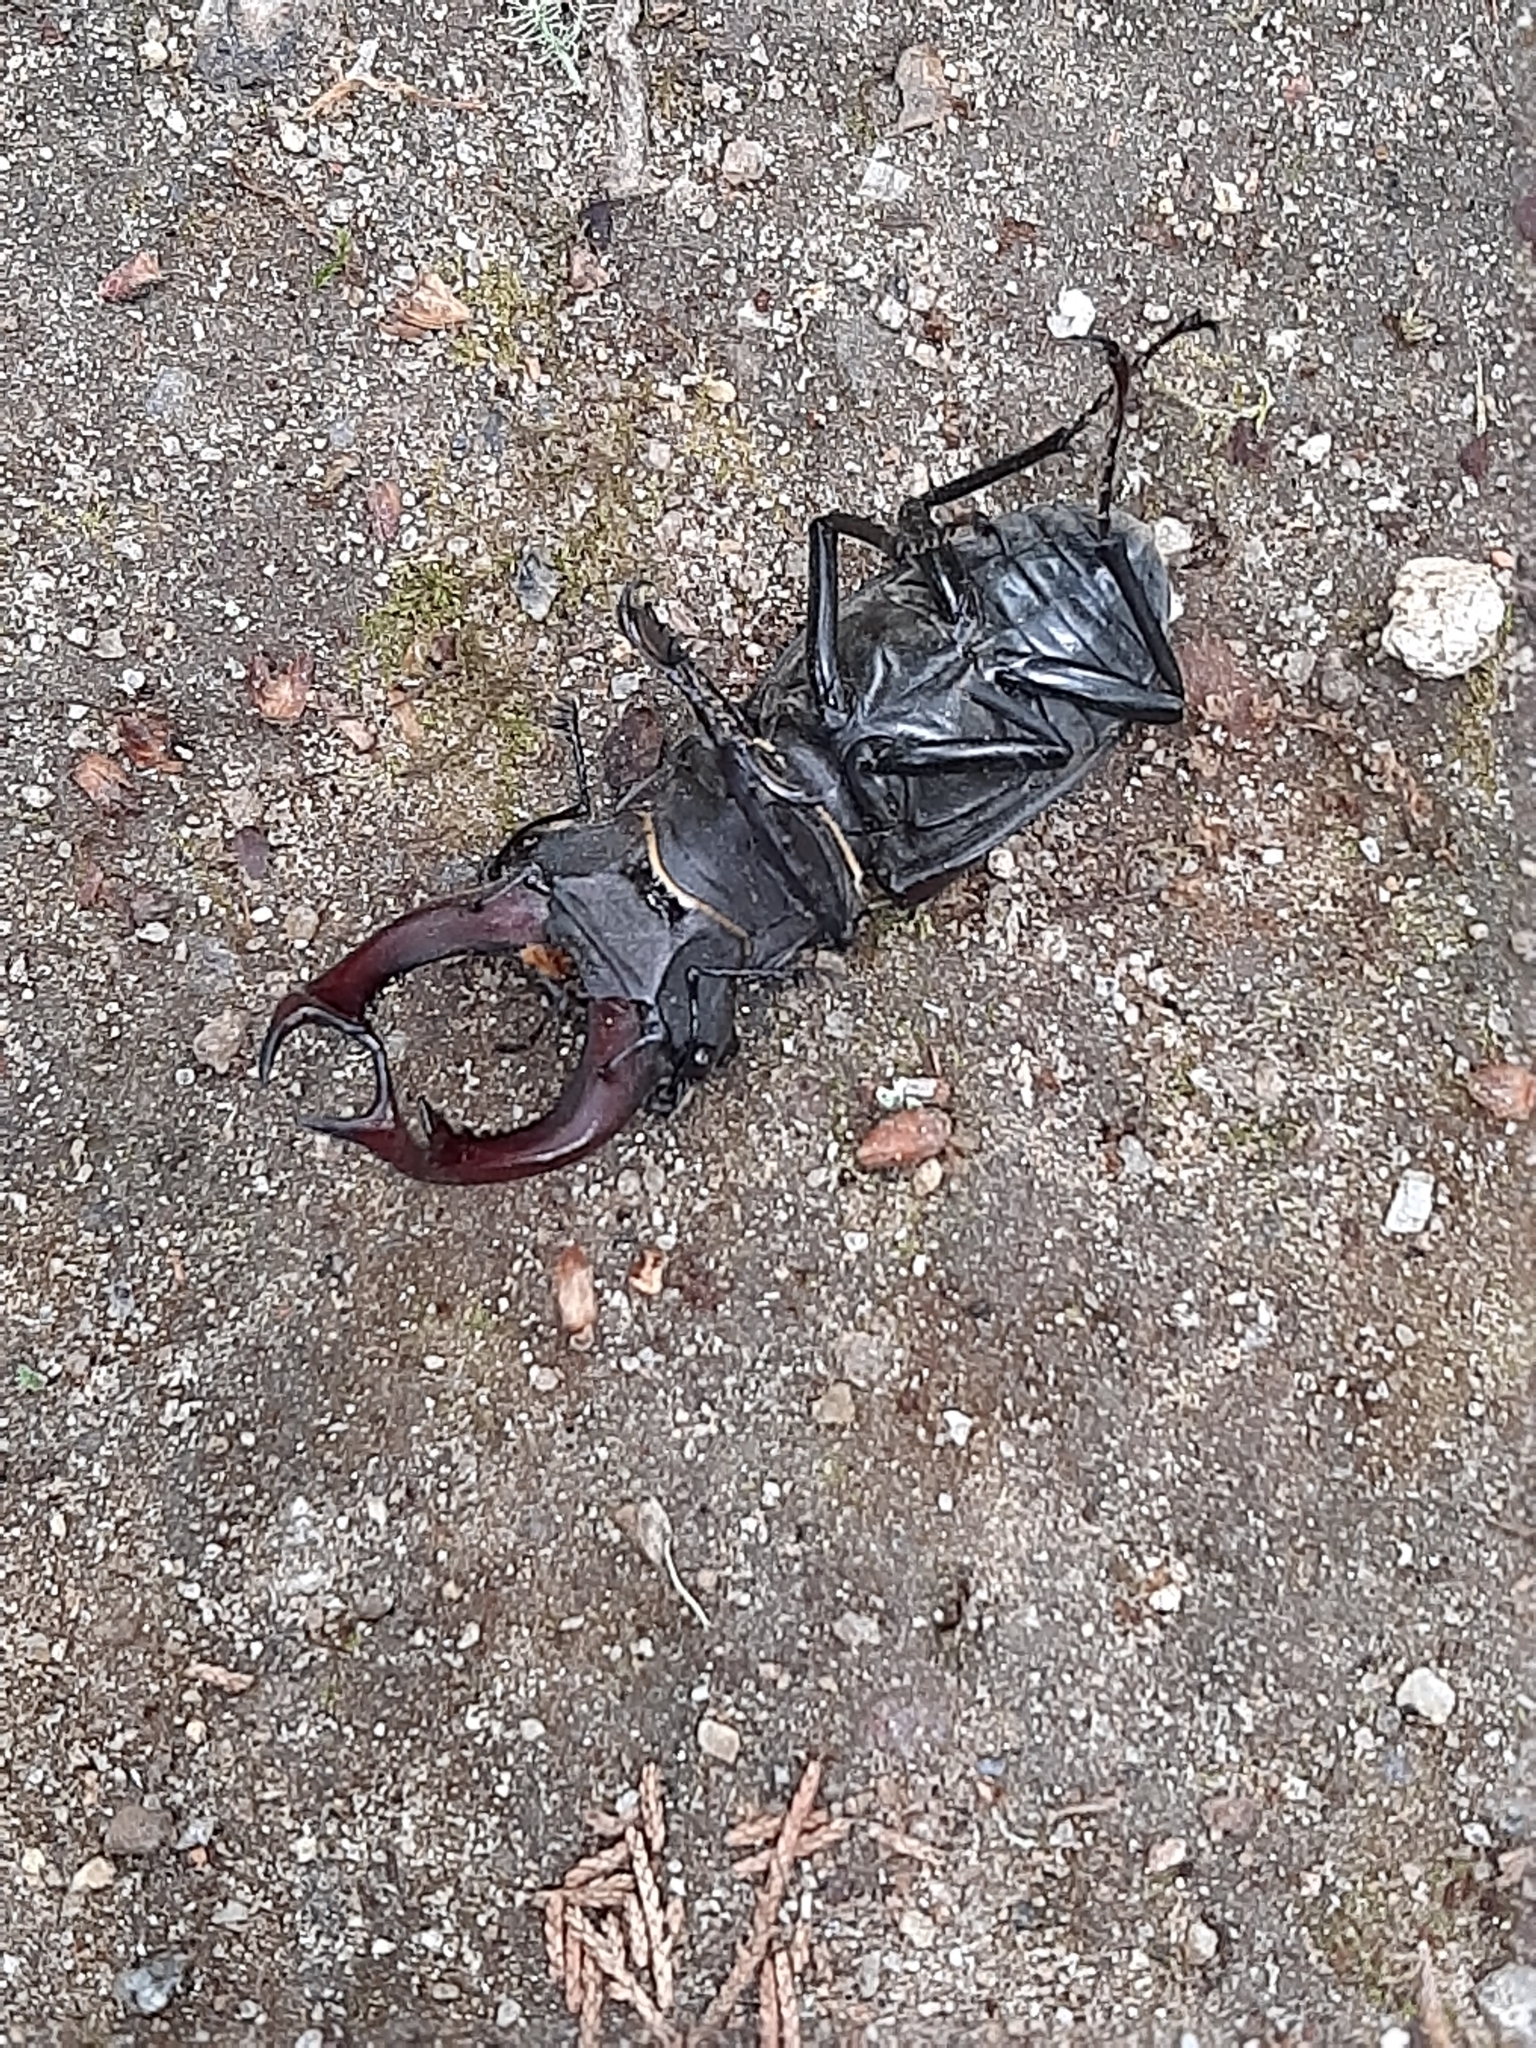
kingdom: Animalia
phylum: Arthropoda
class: Insecta
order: Coleoptera
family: Lucanidae
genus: Lucanus
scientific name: Lucanus cervus
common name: Stag beetle
